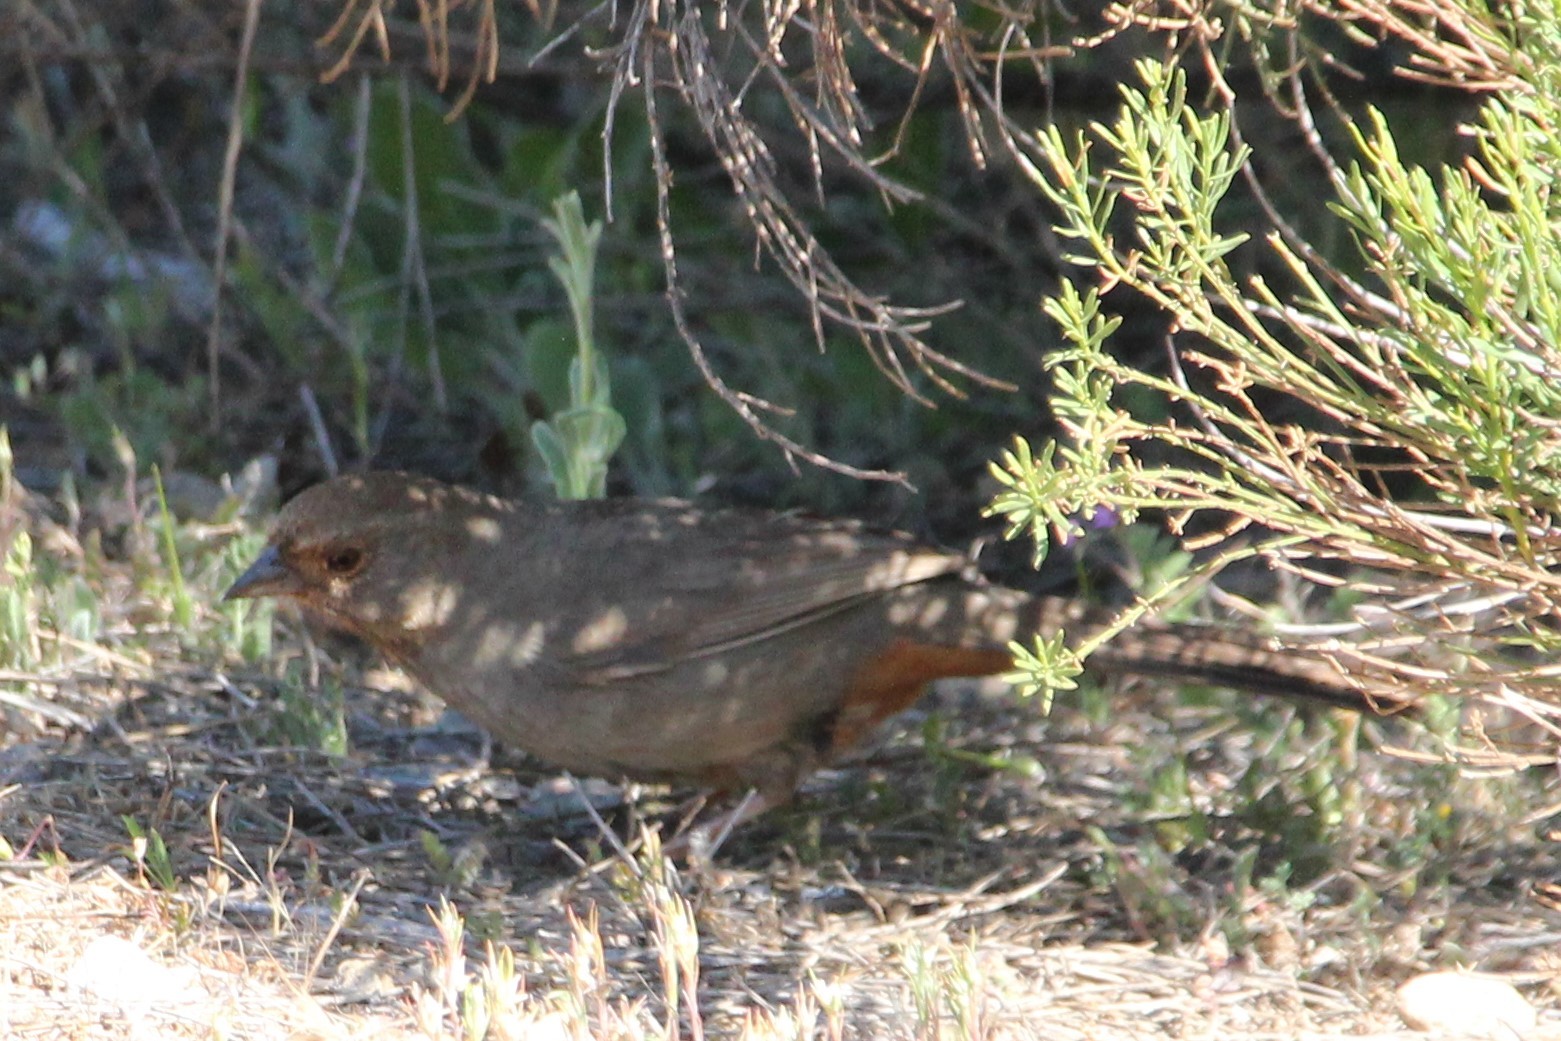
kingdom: Animalia
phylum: Chordata
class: Aves
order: Passeriformes
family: Passerellidae
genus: Melozone
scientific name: Melozone crissalis
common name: California towhee
